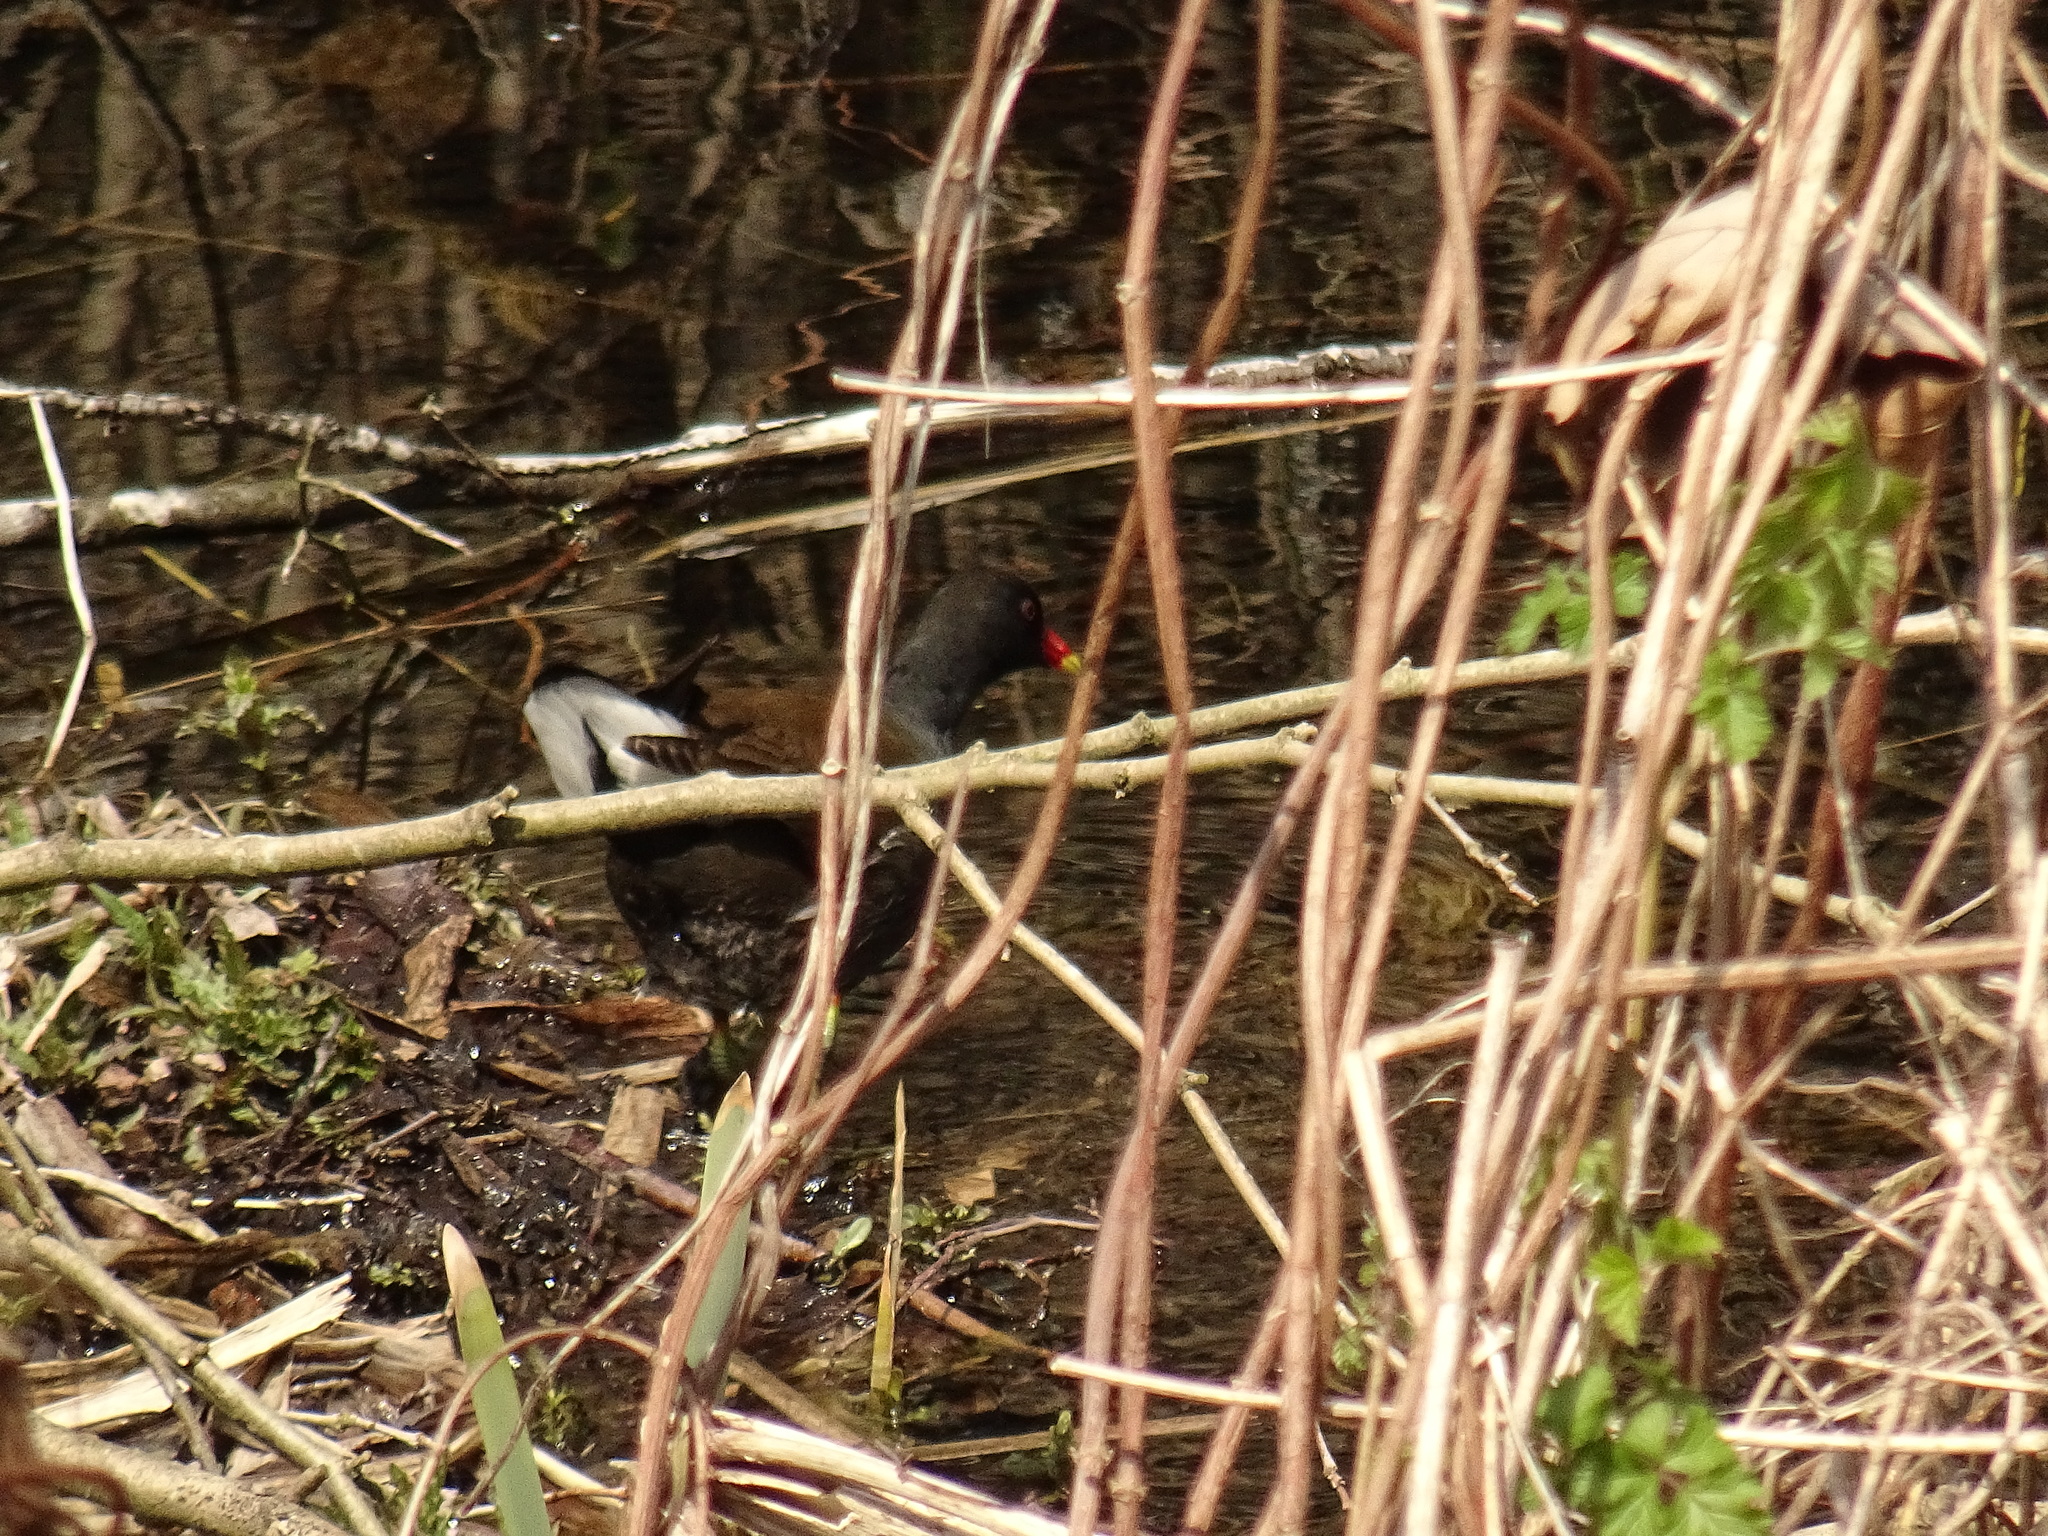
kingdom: Animalia
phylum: Chordata
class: Aves
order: Gruiformes
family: Rallidae
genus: Gallinula
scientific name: Gallinula chloropus
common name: Common moorhen
